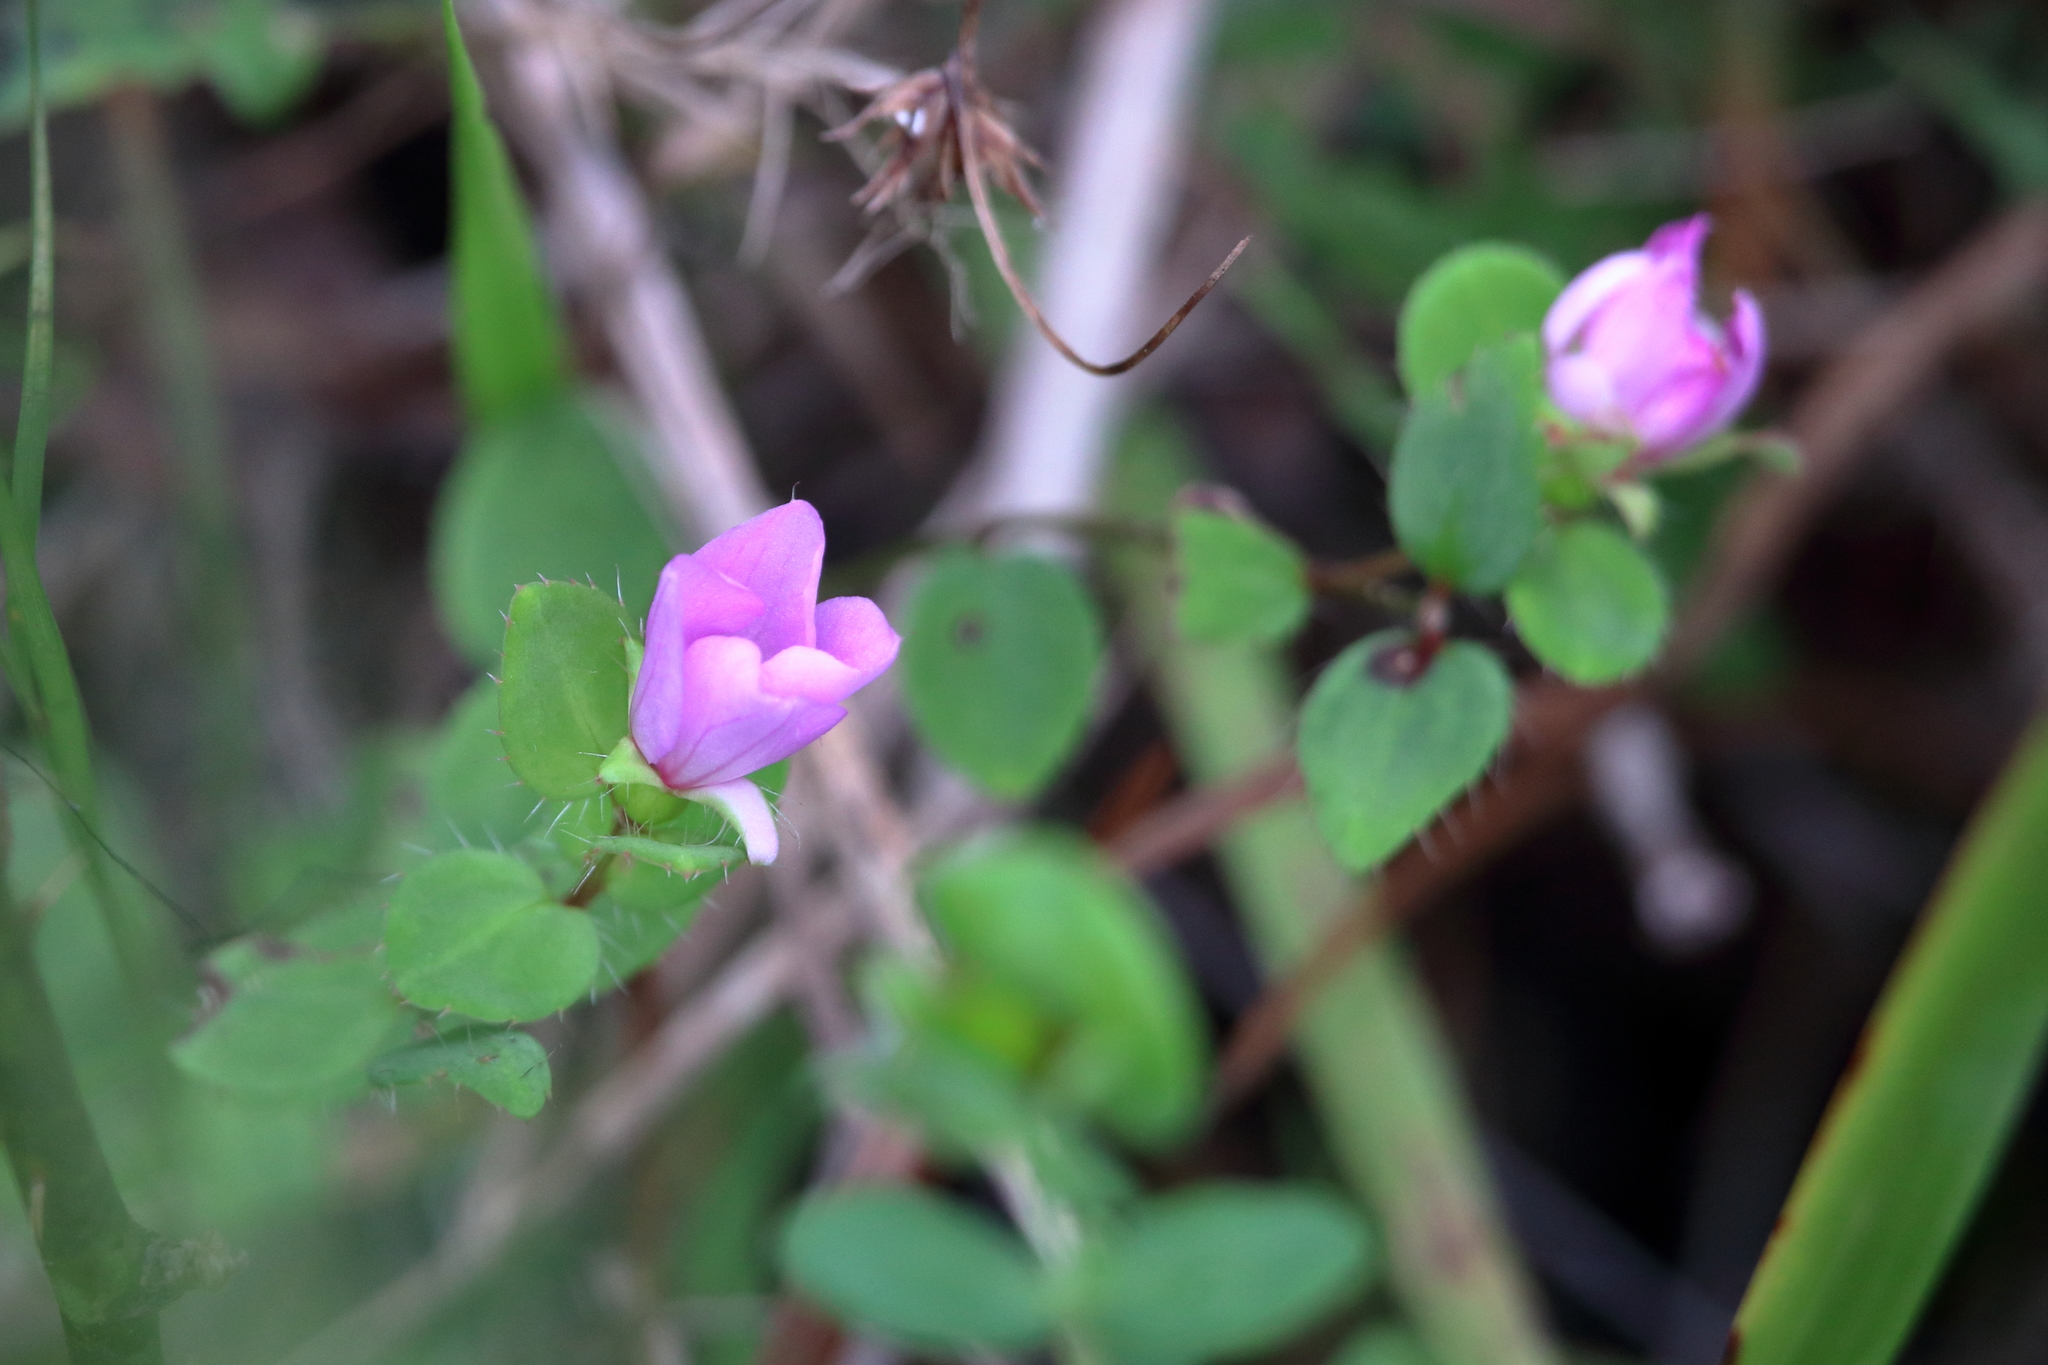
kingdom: Plantae
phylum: Tracheophyta
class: Magnoliopsida
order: Myrtales
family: Melastomataceae
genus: Rhexia
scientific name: Rhexia petiolata
